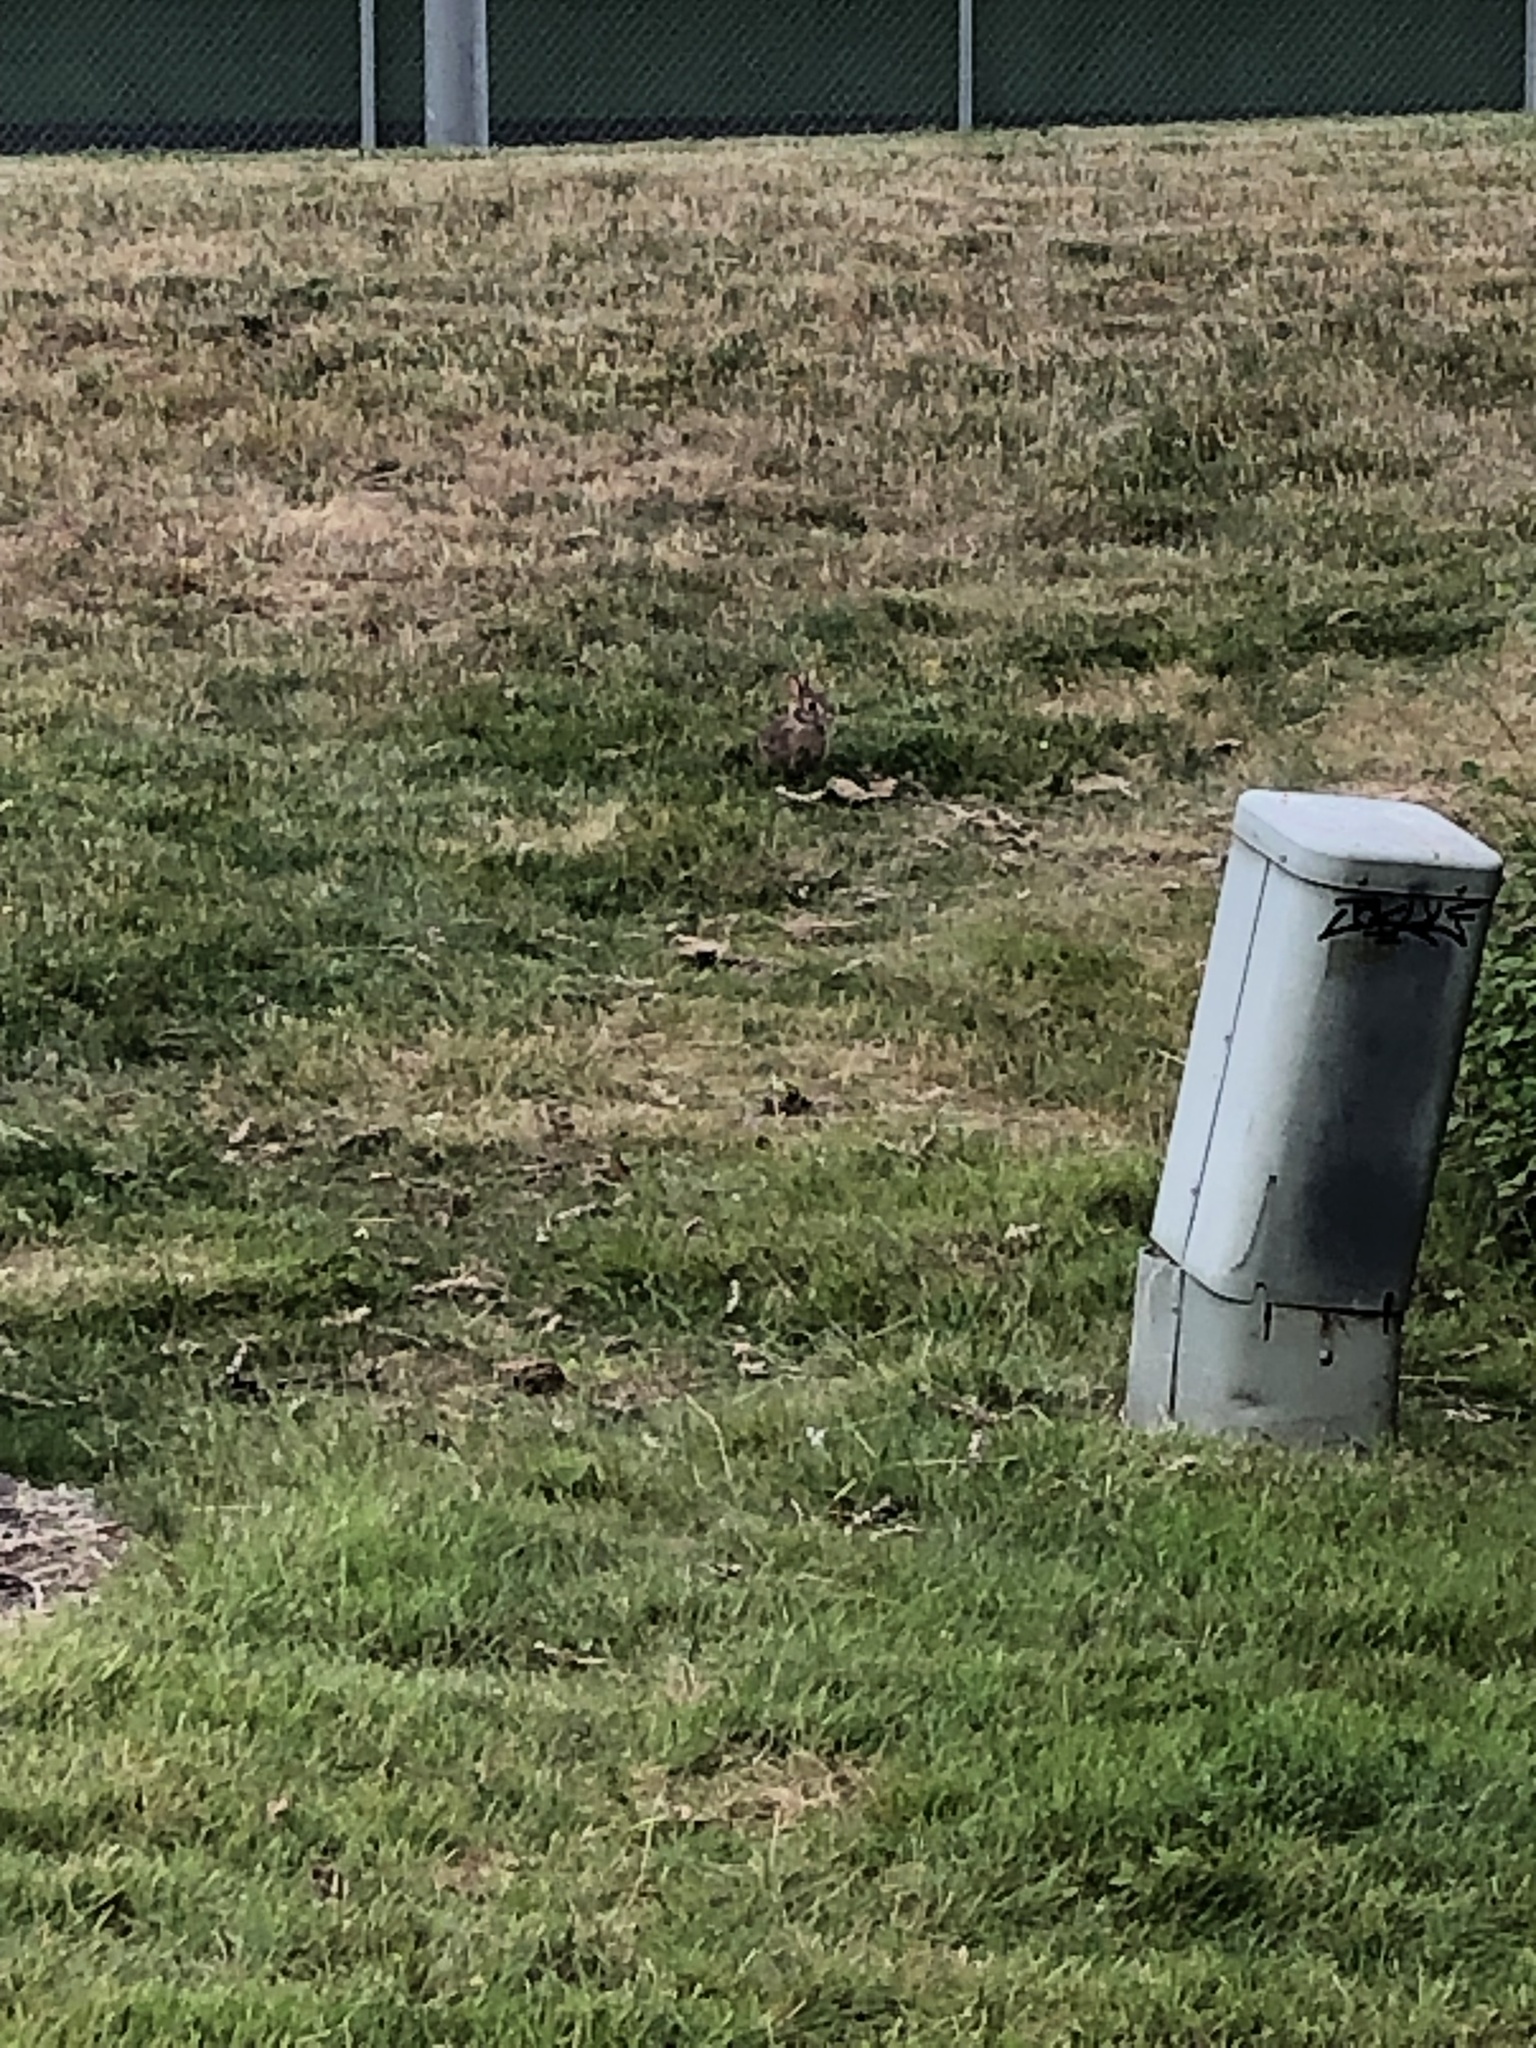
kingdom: Animalia
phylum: Chordata
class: Mammalia
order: Lagomorpha
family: Leporidae
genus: Sylvilagus
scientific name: Sylvilagus floridanus
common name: Eastern cottontail
